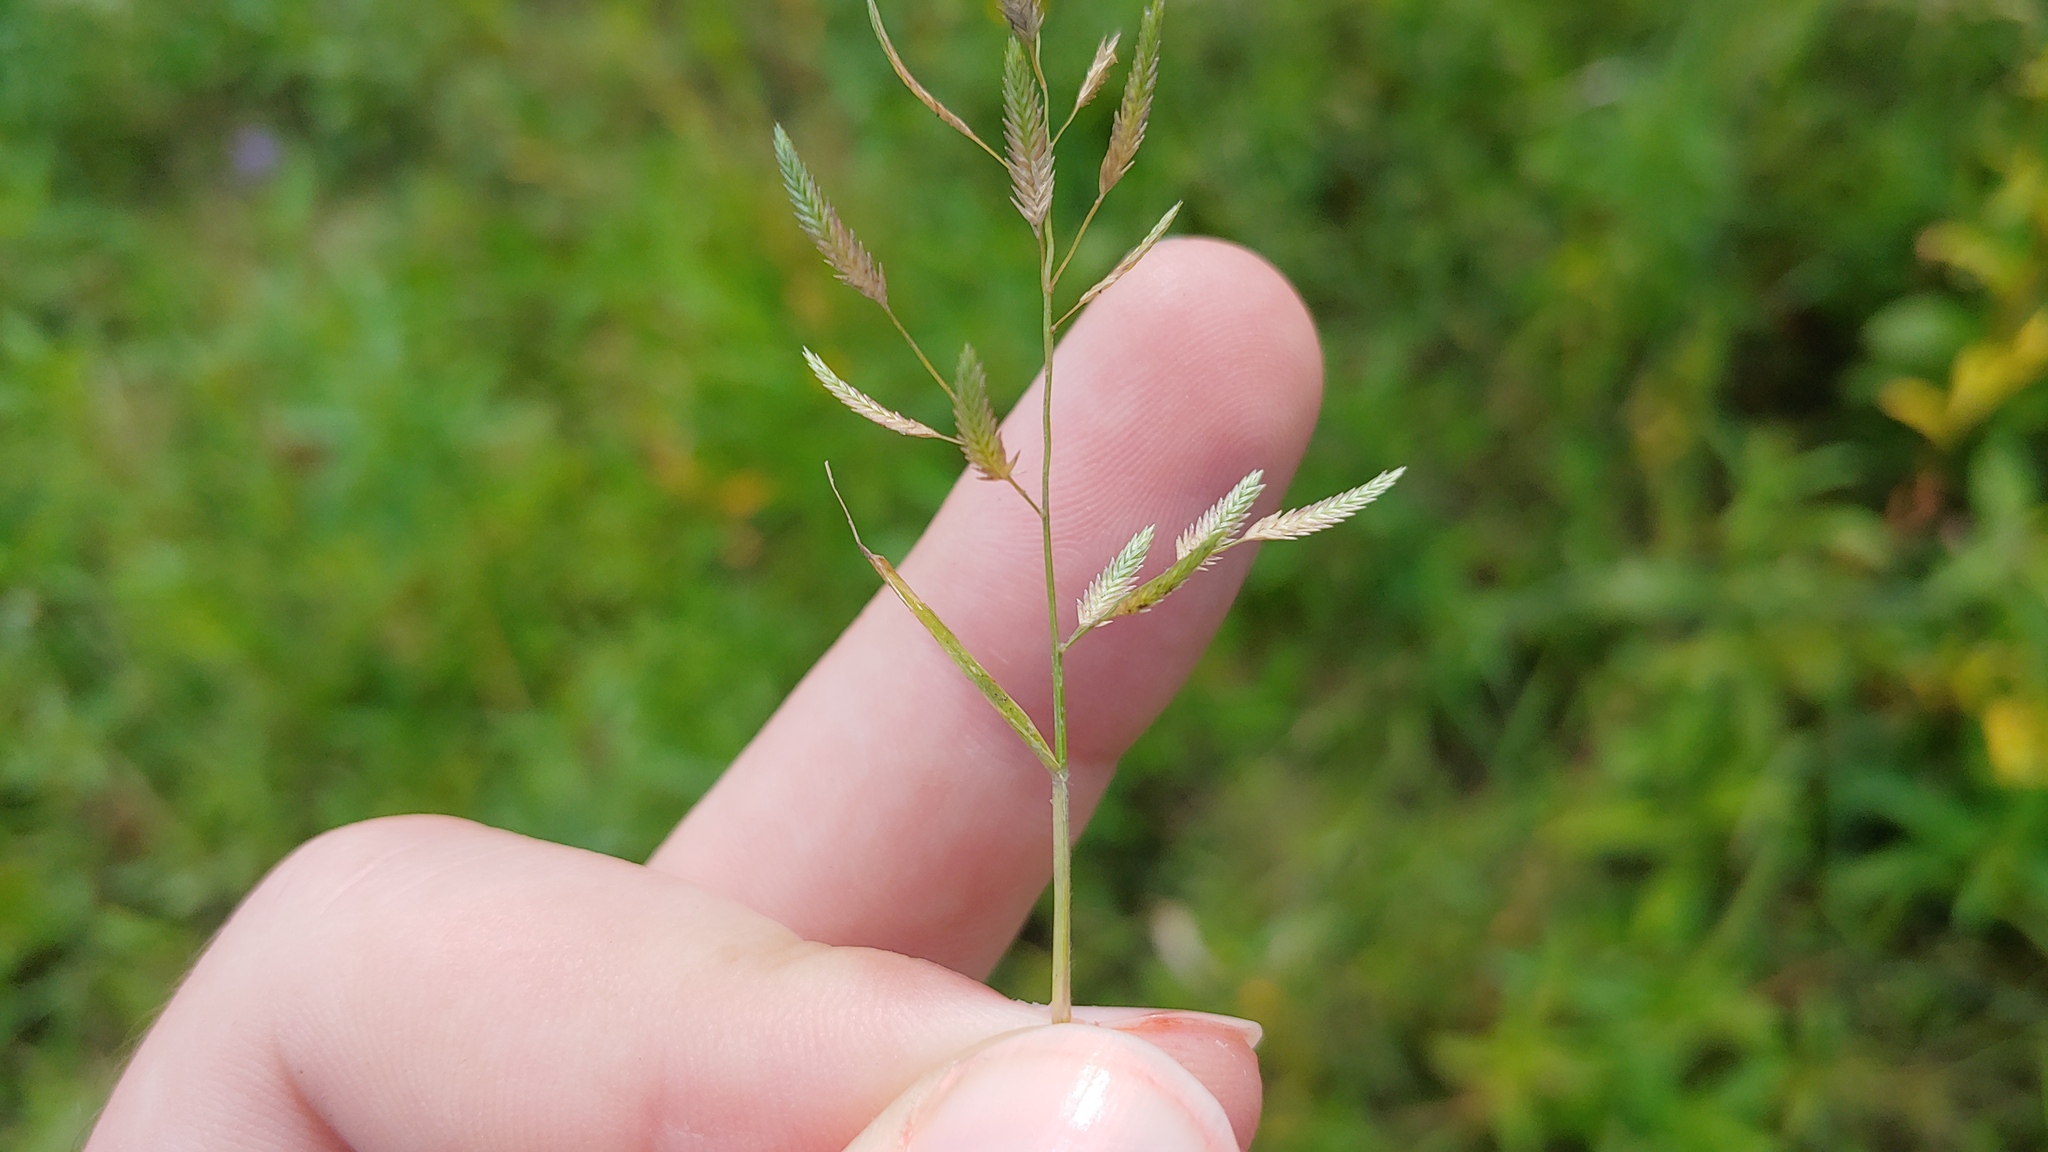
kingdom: Plantae
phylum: Tracheophyta
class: Liliopsida
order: Poales
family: Poaceae
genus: Eragrostis
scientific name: Eragrostis hypnoides
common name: Creeping love grass
